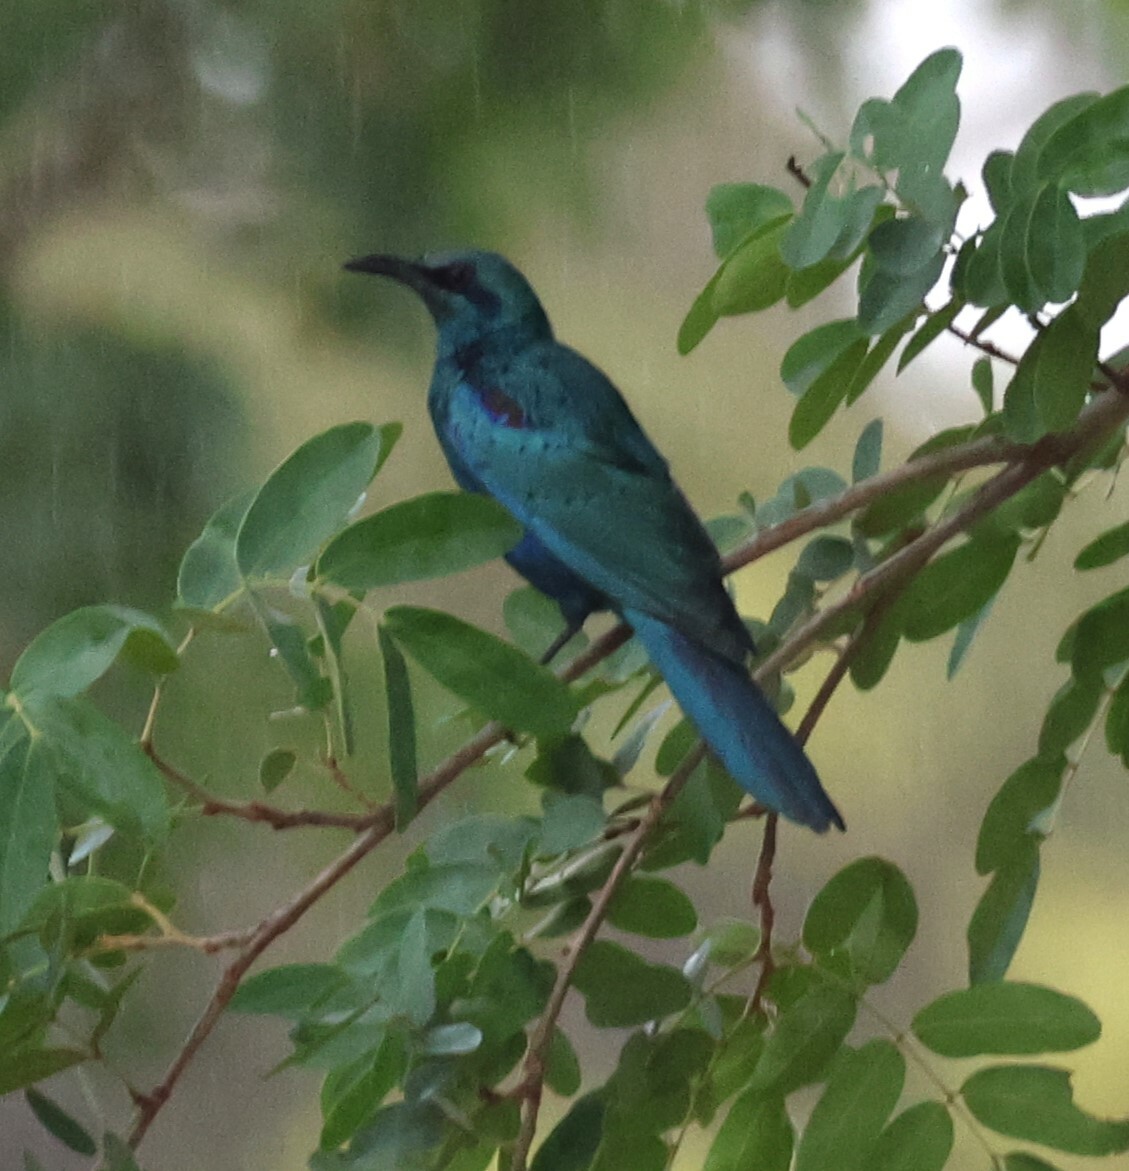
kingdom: Animalia
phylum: Chordata
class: Aves
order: Passeriformes
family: Sturnidae
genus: Lamprotornis
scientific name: Lamprotornis acuticaudus
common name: Sharp-tailed starling
